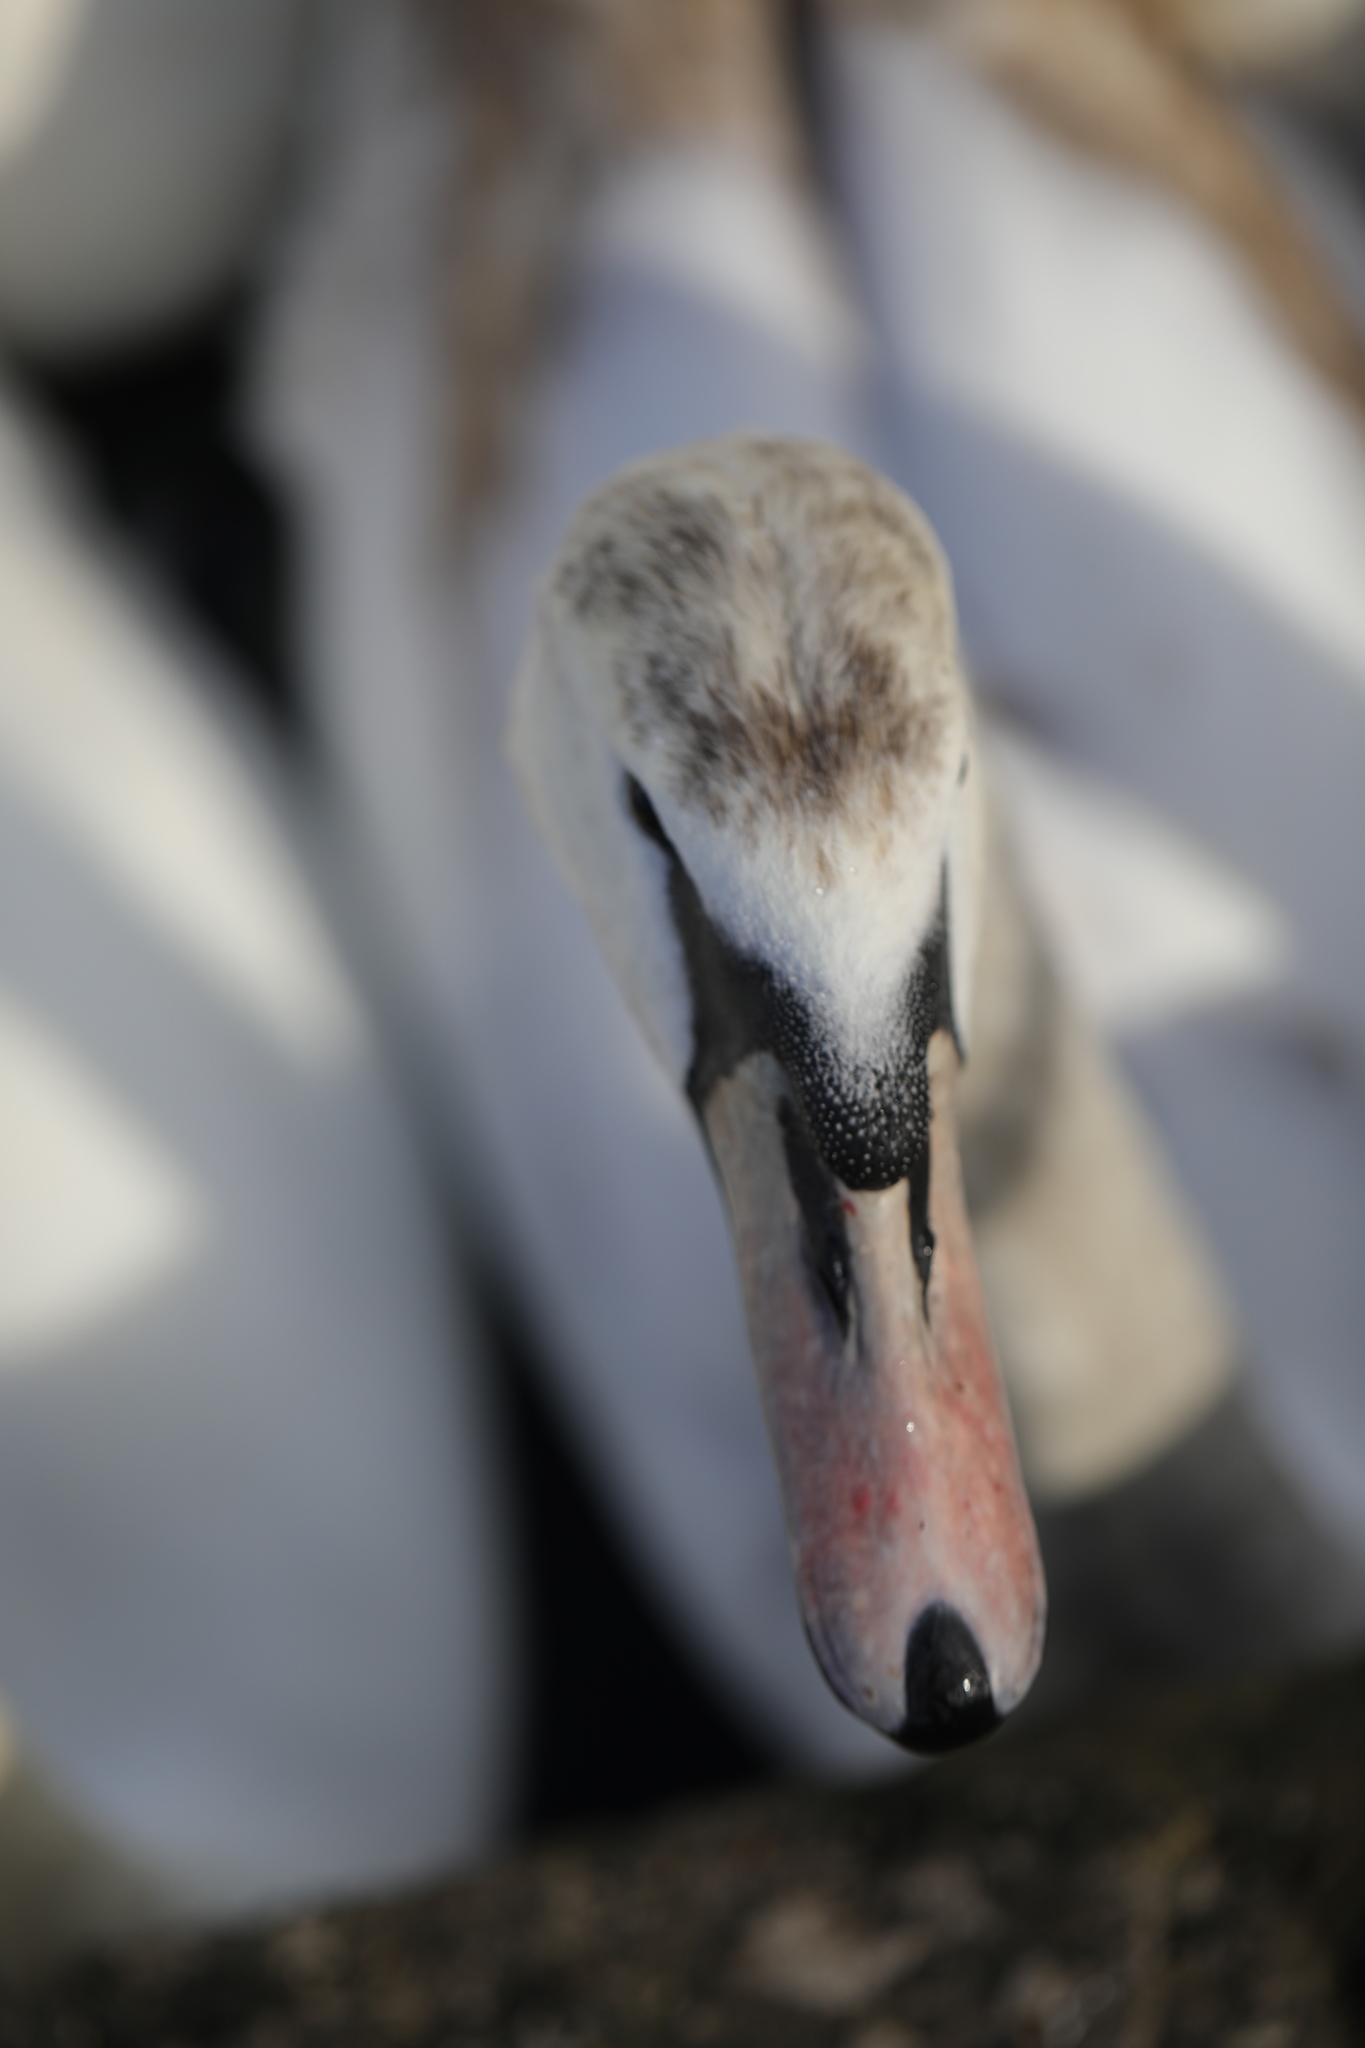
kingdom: Animalia
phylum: Chordata
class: Aves
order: Anseriformes
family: Anatidae
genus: Cygnus
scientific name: Cygnus olor
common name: Mute swan
